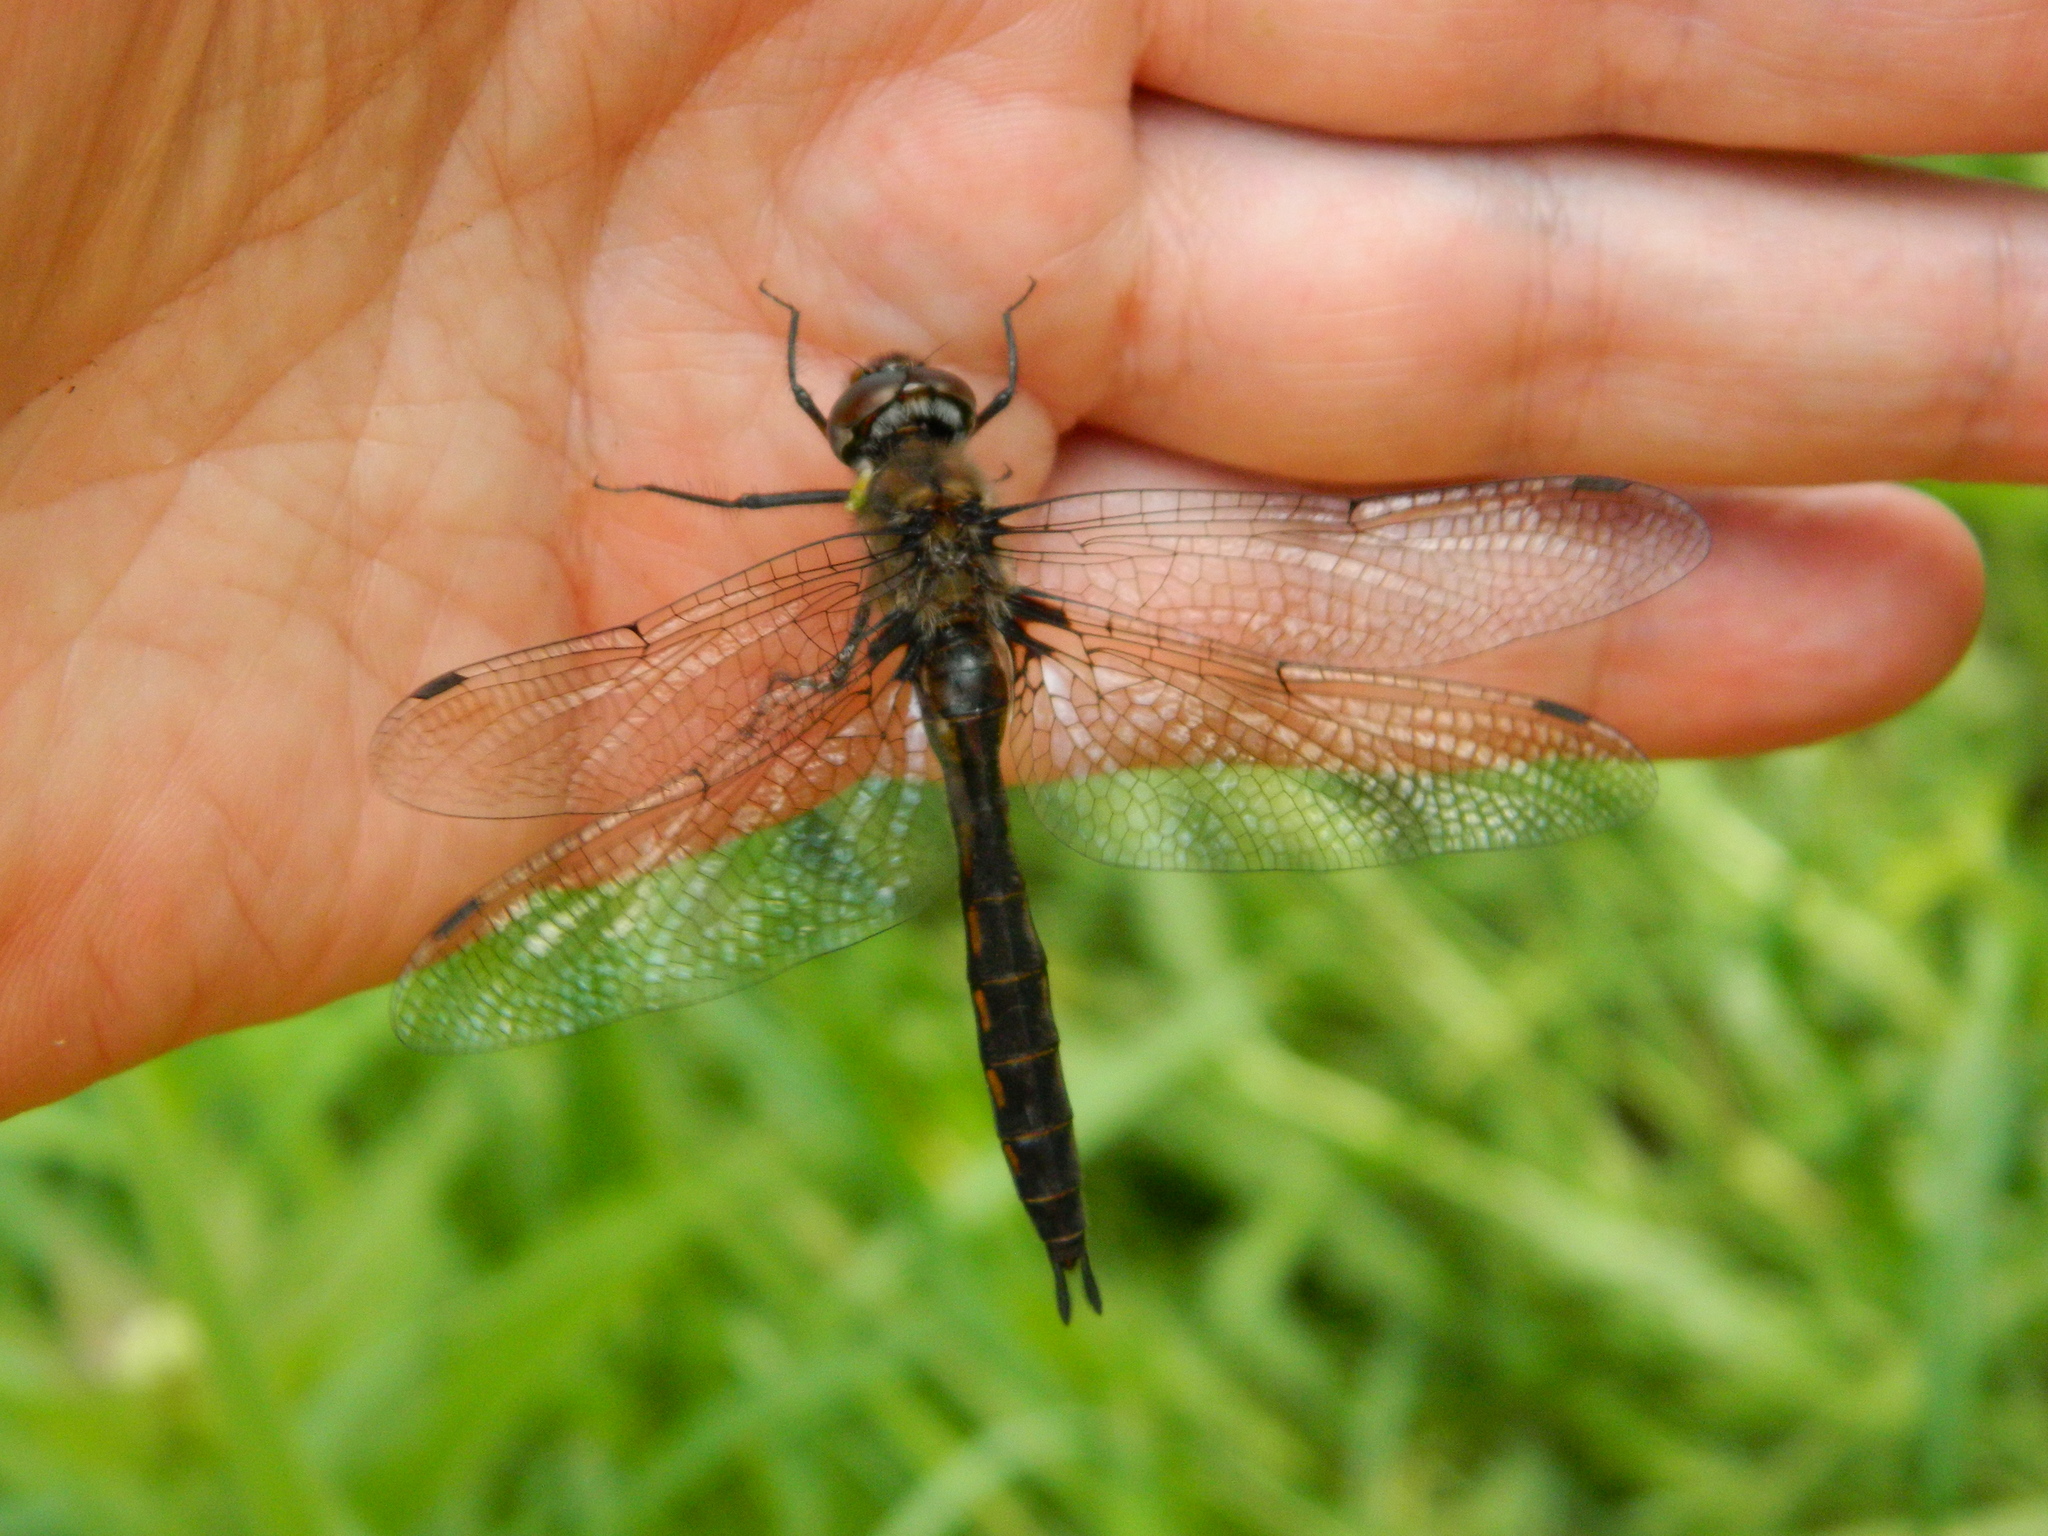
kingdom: Animalia
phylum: Arthropoda
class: Insecta
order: Odonata
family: Corduliidae
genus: Epitheca
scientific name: Epitheca spinigera
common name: Spiny baskettail
